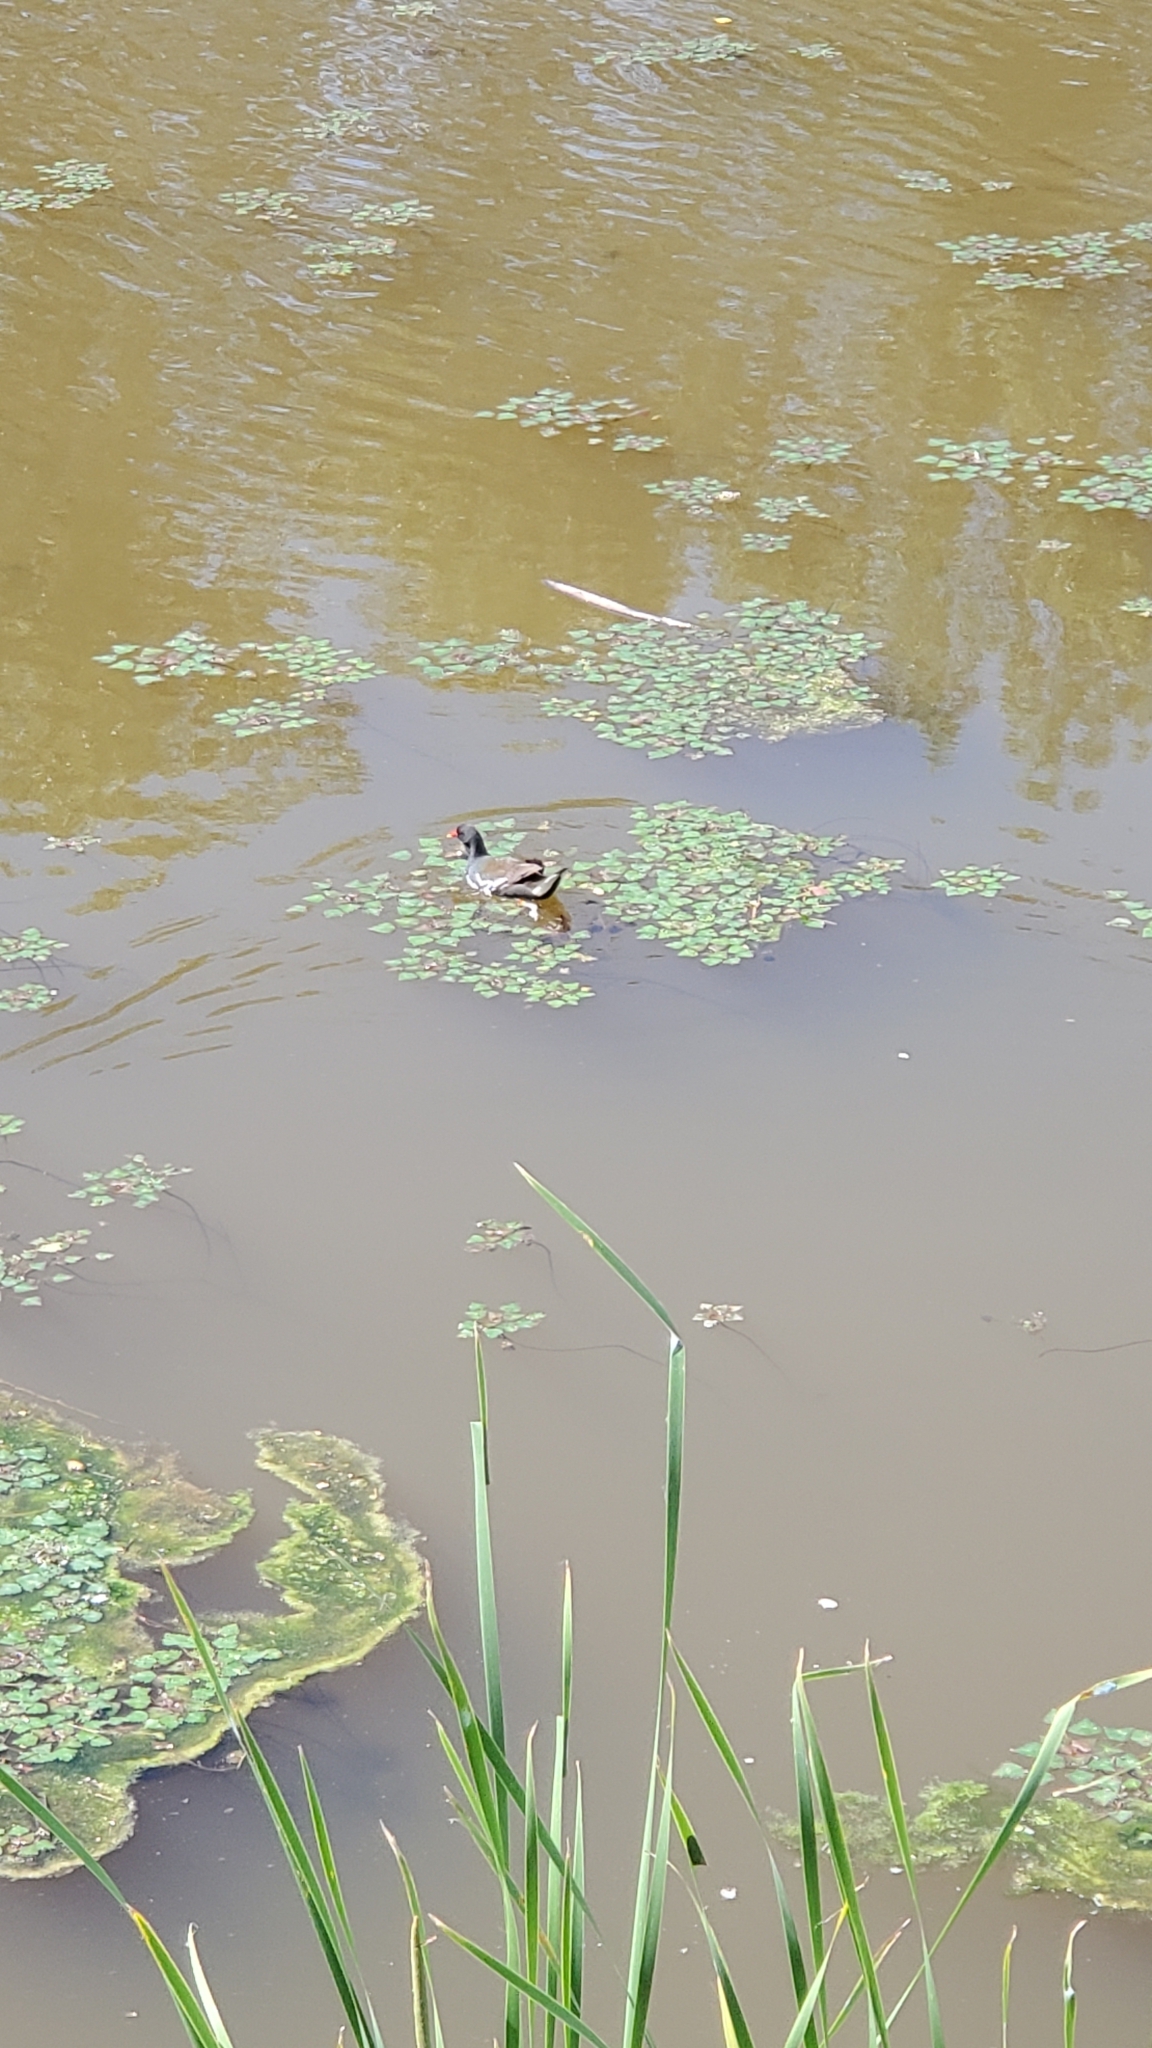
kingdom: Animalia
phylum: Chordata
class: Aves
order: Gruiformes
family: Rallidae
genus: Gallinula
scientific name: Gallinula chloropus
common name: Common moorhen
